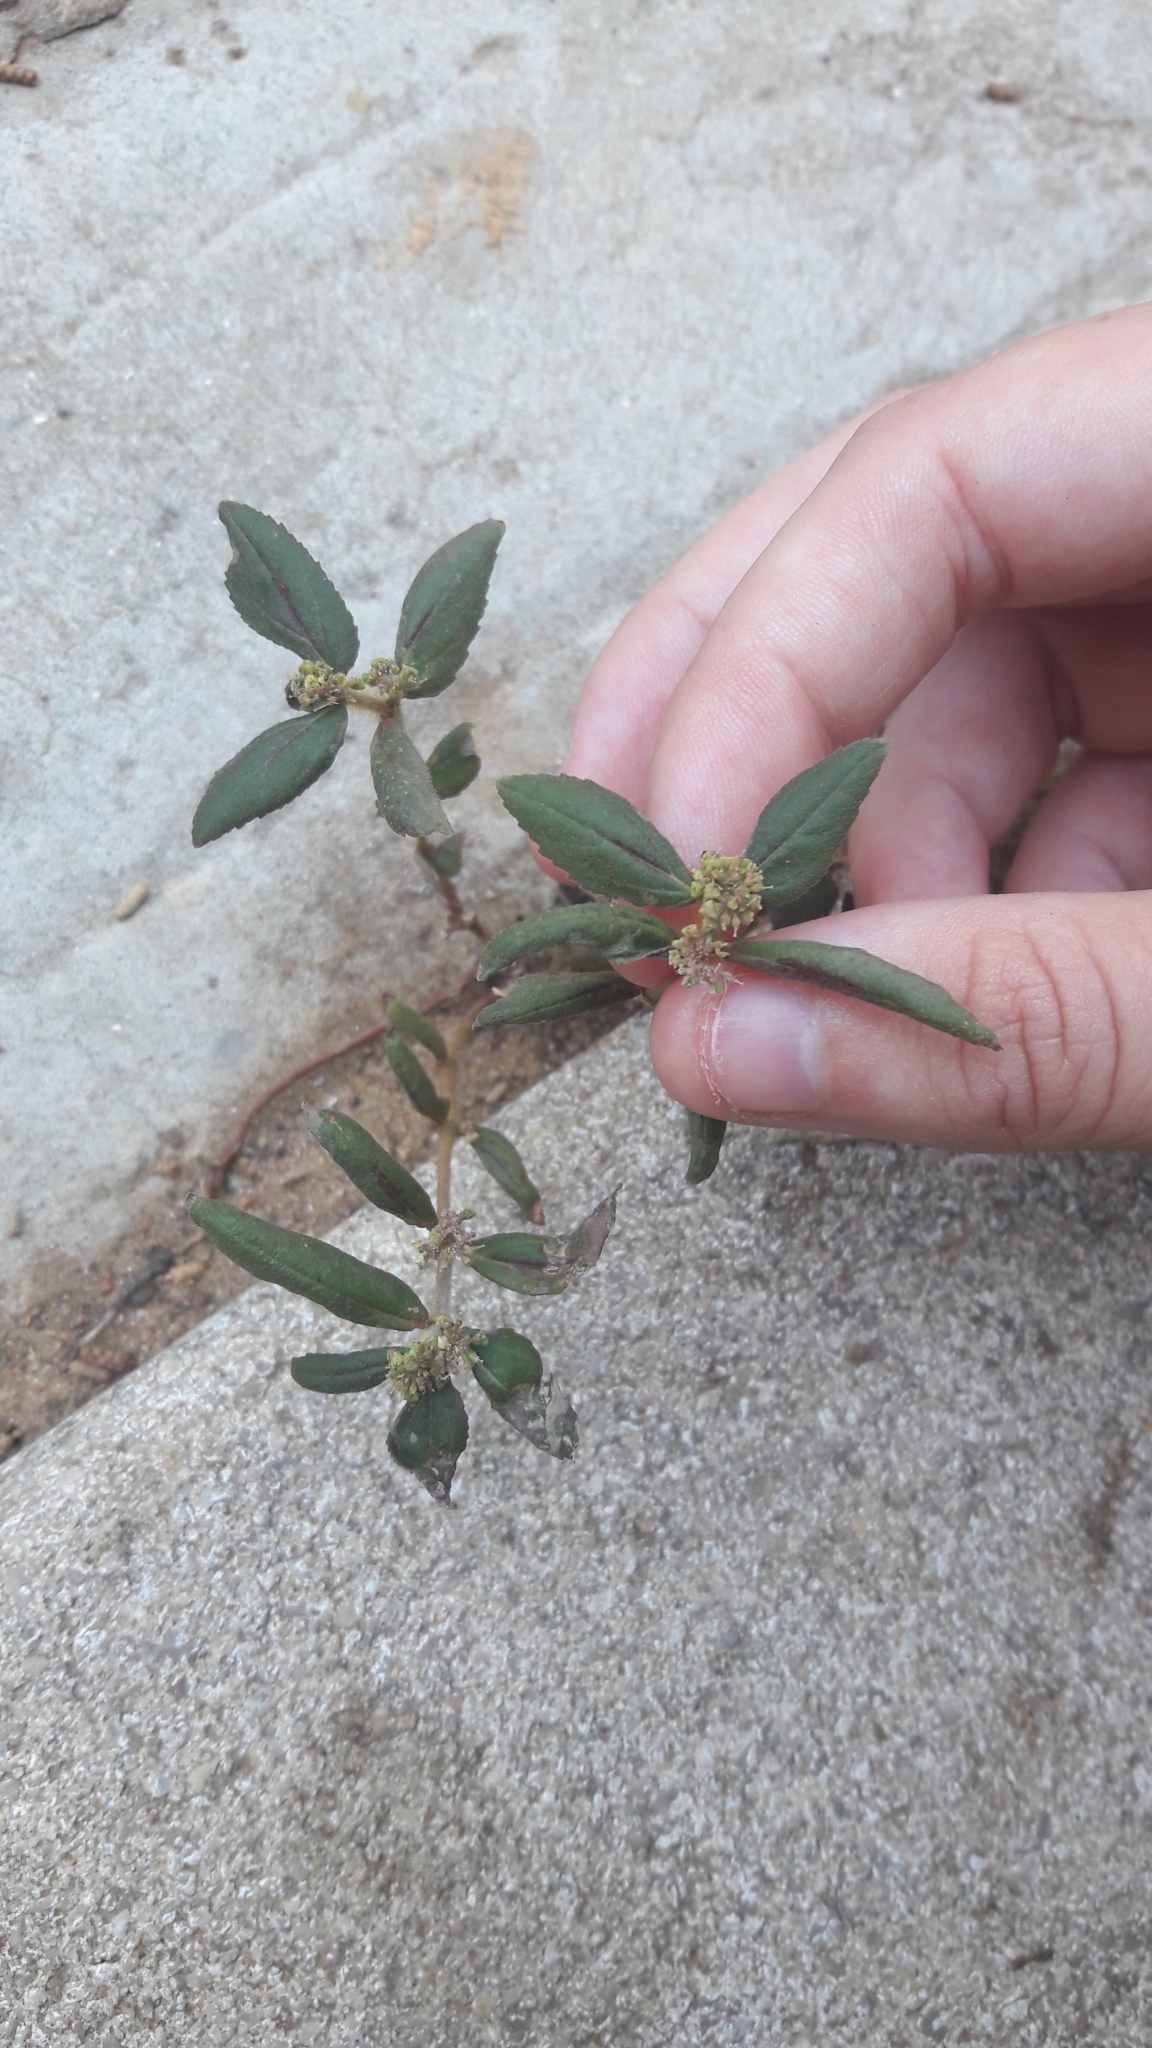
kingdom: Plantae
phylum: Tracheophyta
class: Magnoliopsida
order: Malpighiales
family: Euphorbiaceae
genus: Euphorbia
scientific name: Euphorbia hirta
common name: Pillpod sandmat
